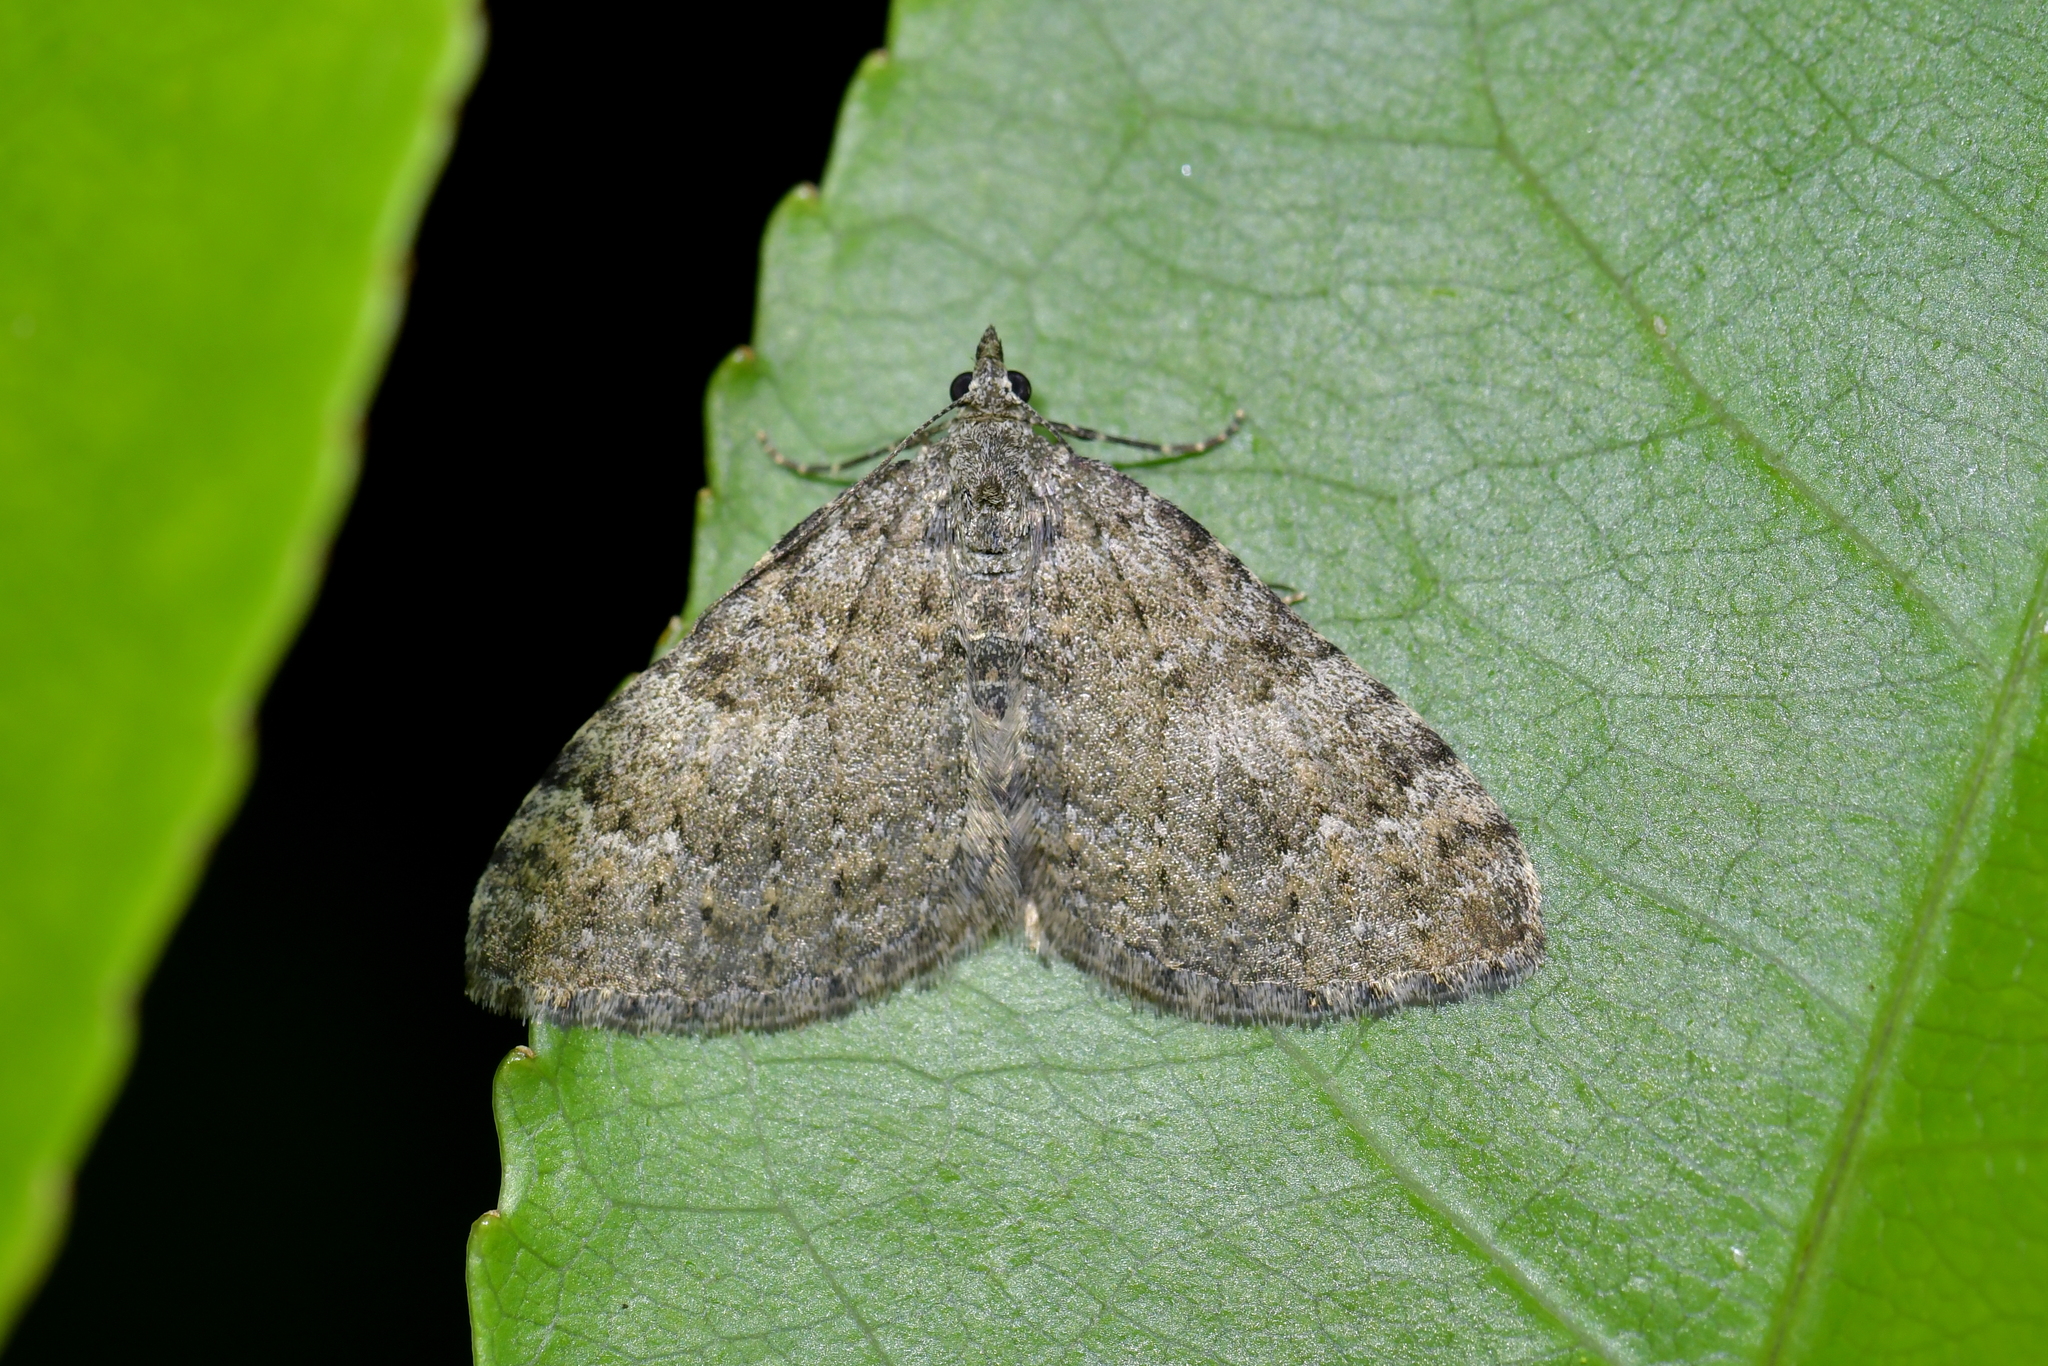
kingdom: Animalia
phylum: Arthropoda
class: Insecta
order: Lepidoptera
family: Geometridae
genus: Helastia
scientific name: Helastia semisignata
